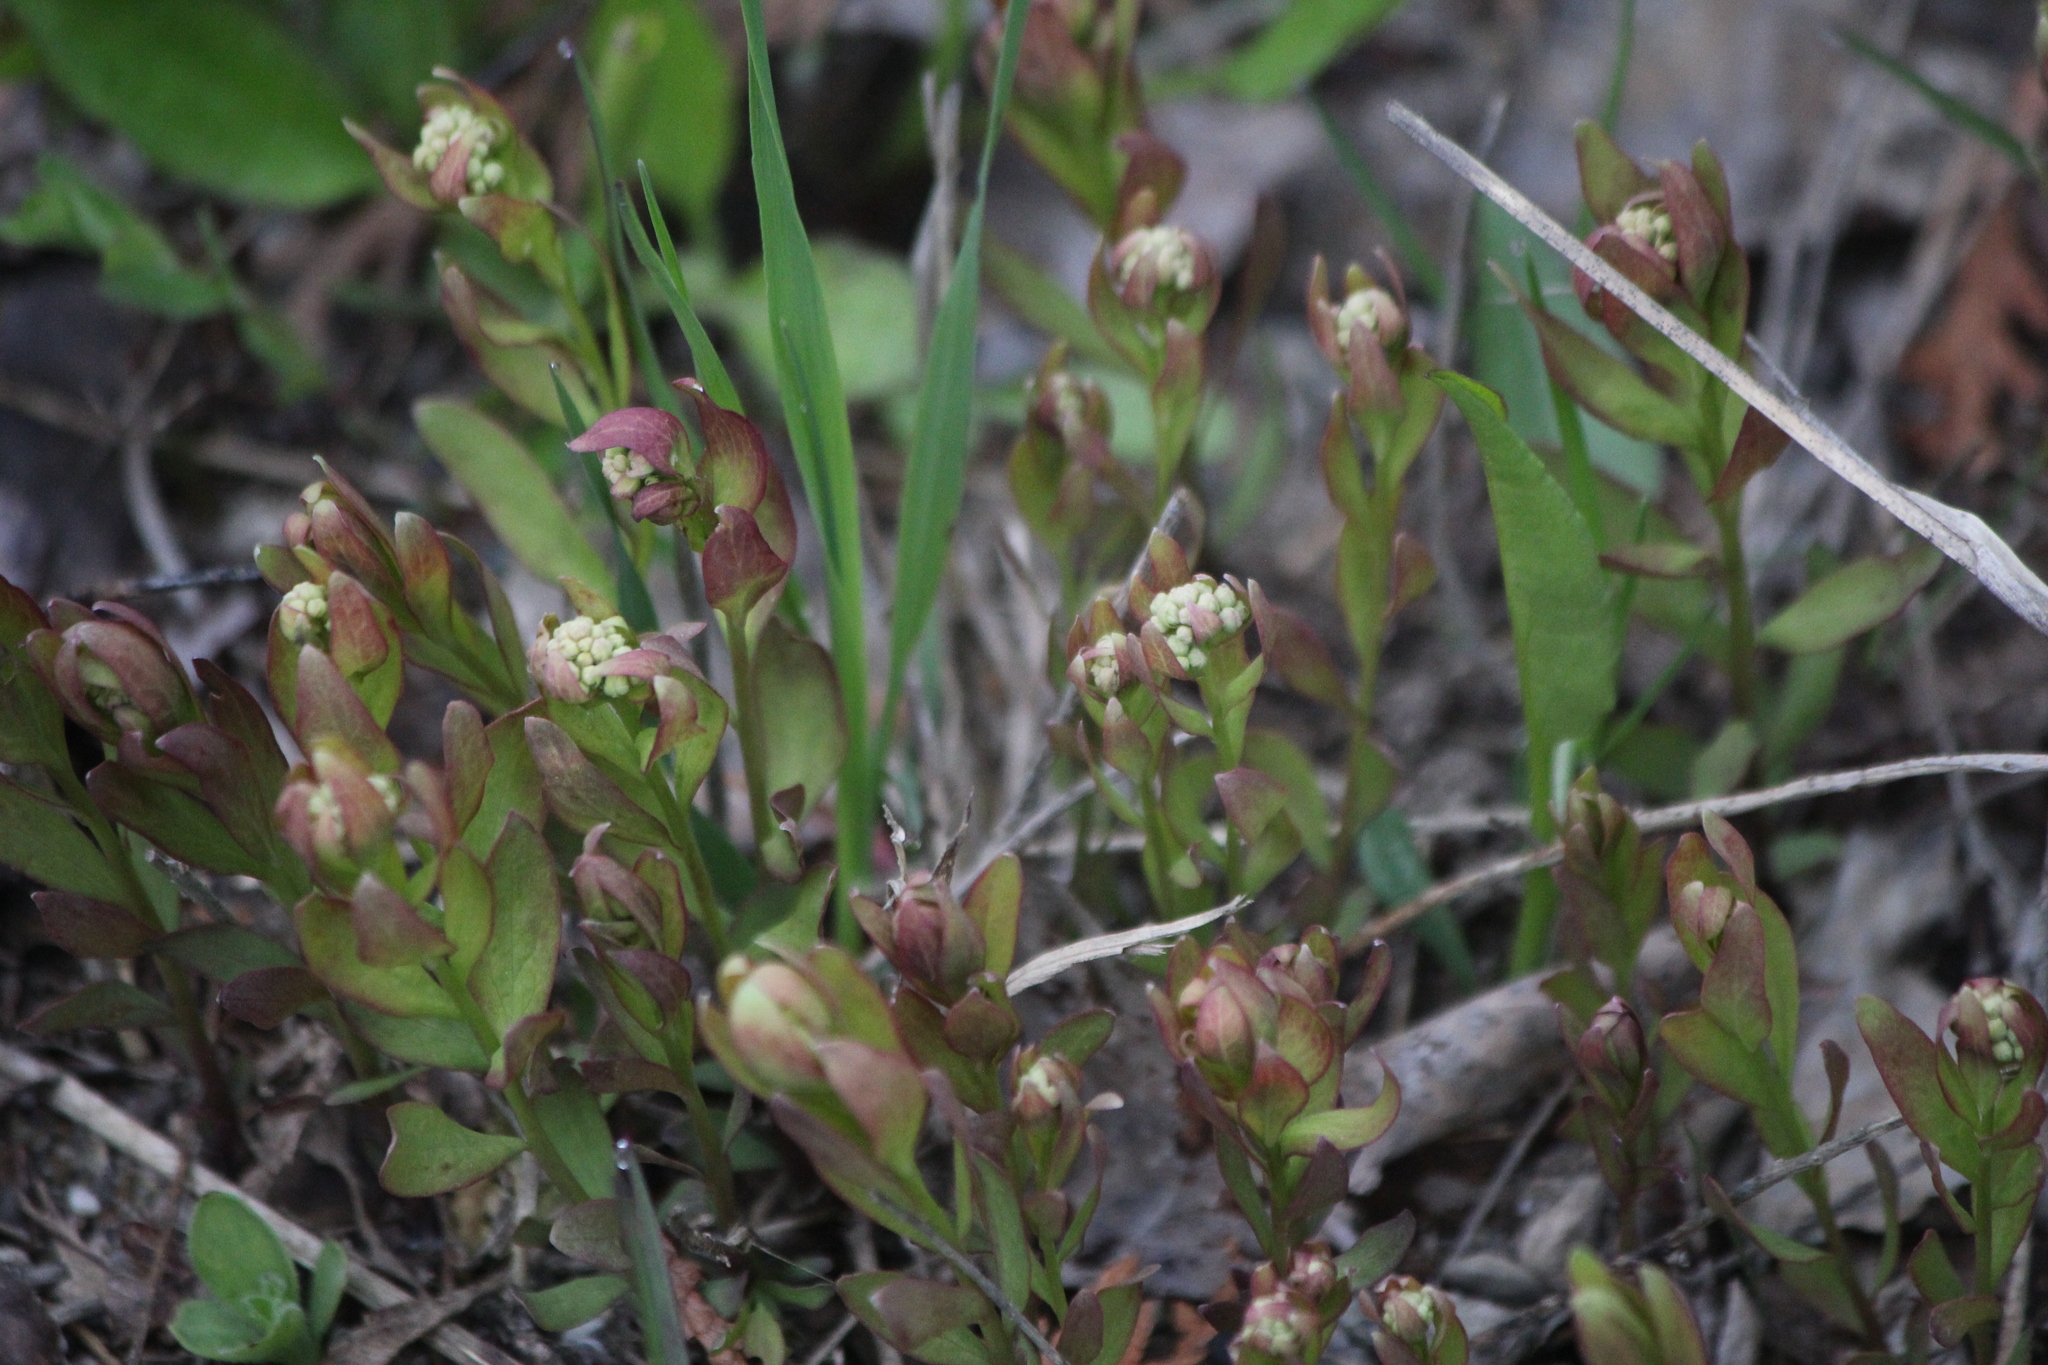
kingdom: Plantae
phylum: Tracheophyta
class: Magnoliopsida
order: Santalales
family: Comandraceae
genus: Comandra
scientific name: Comandra umbellata
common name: Bastard toadflax
